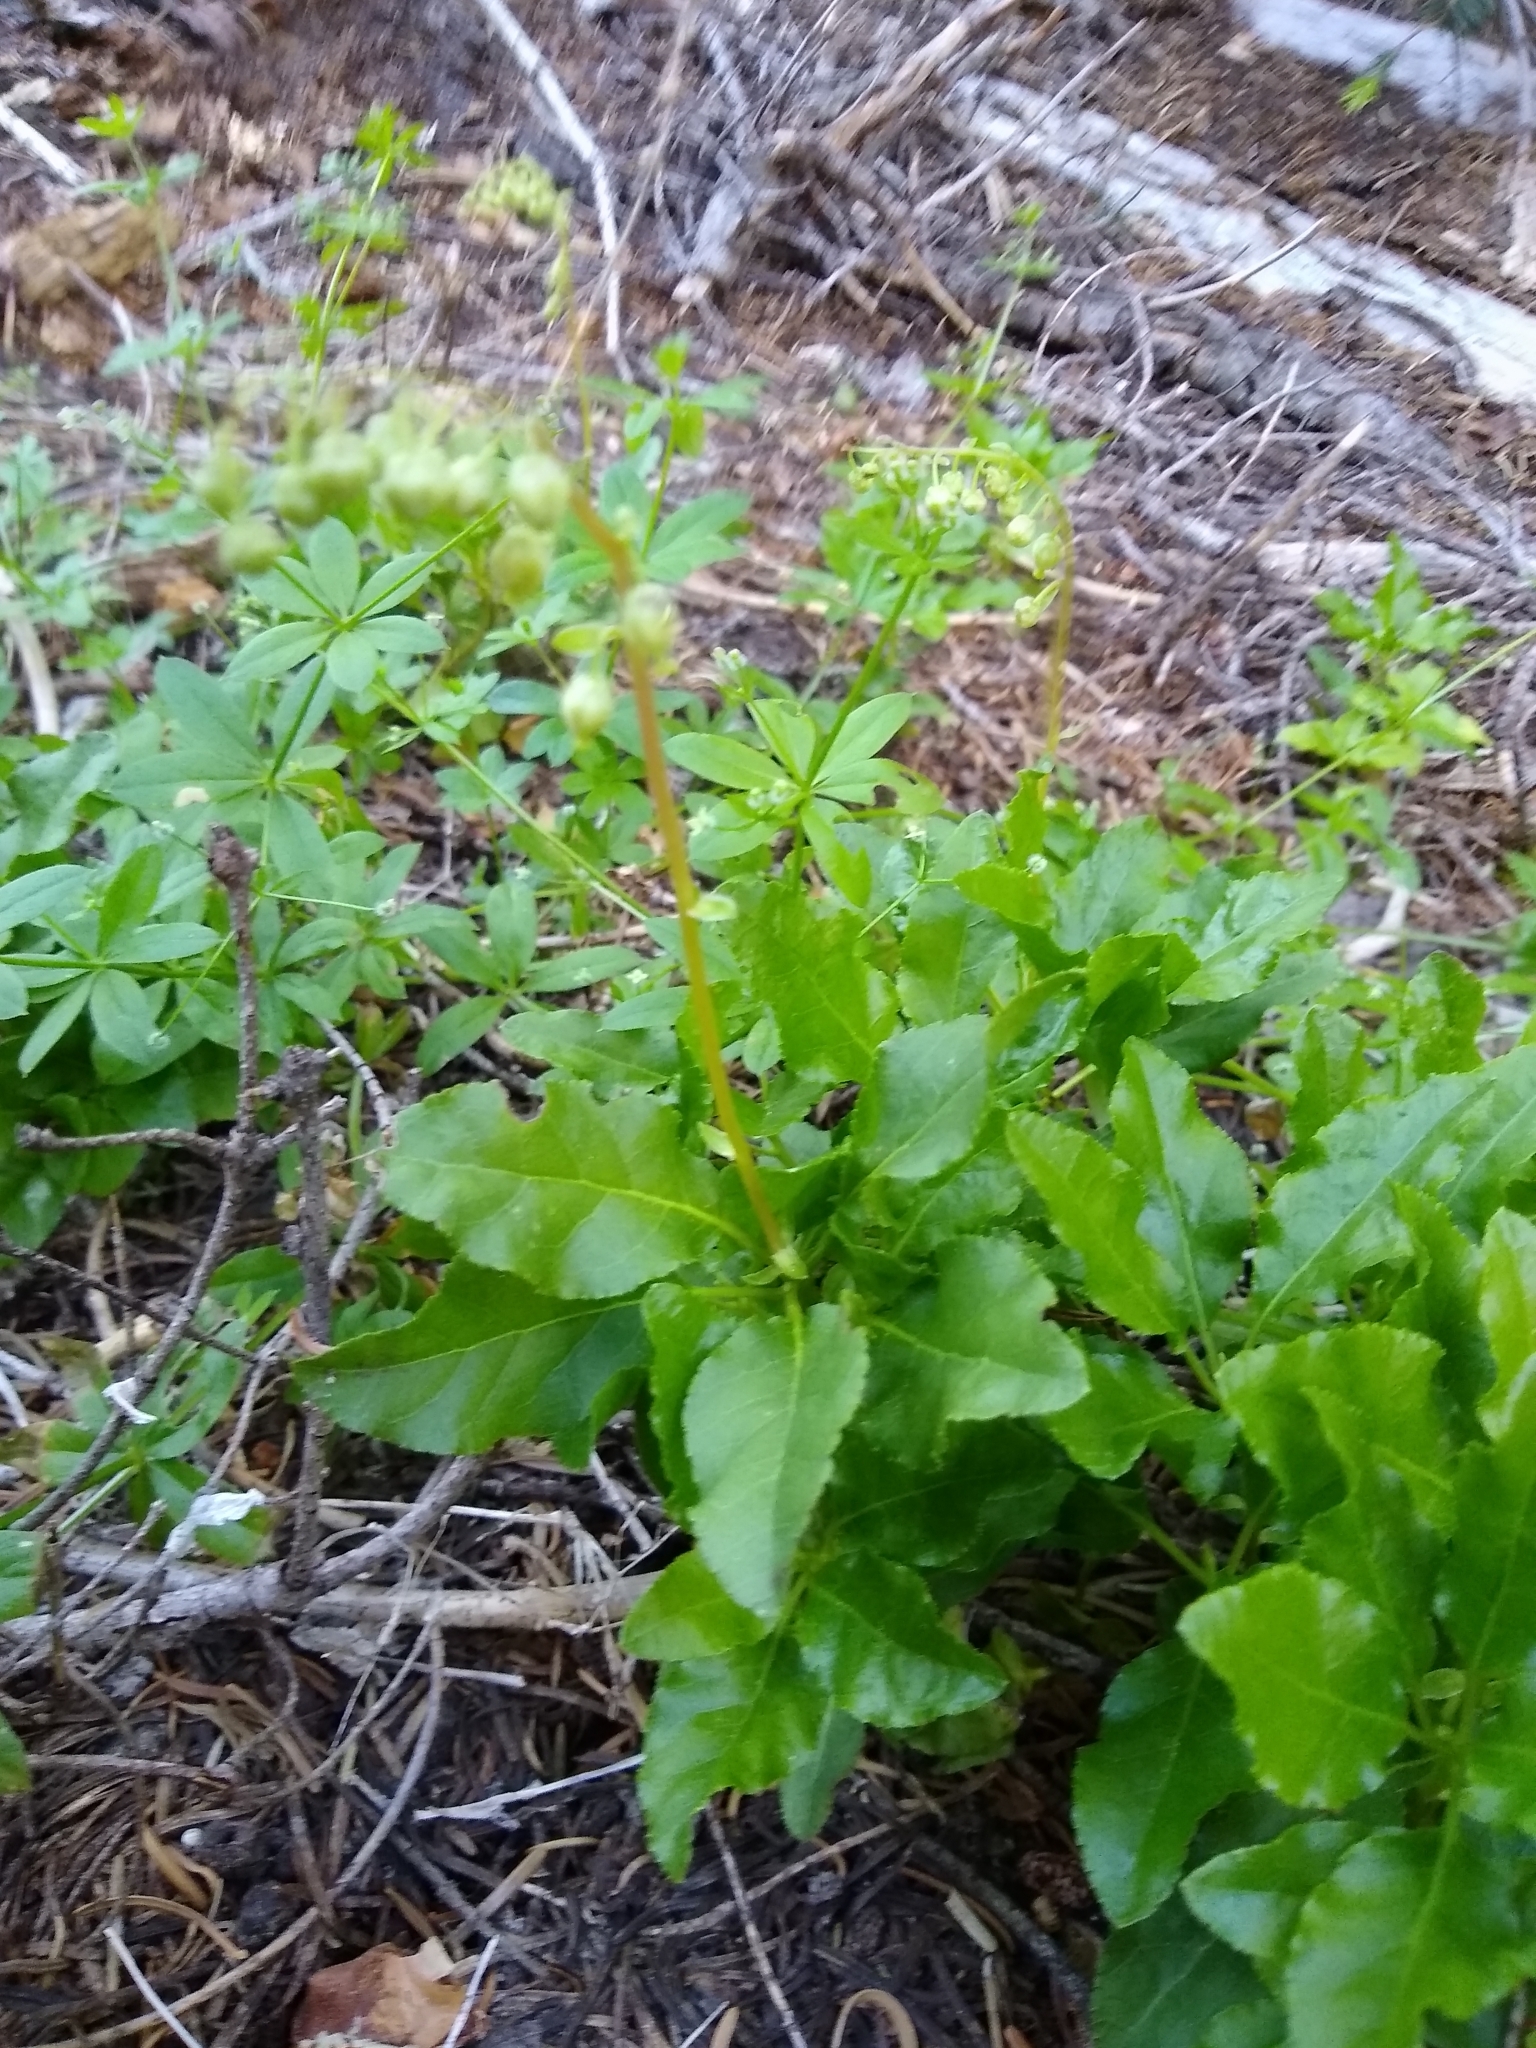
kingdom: Plantae
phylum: Tracheophyta
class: Magnoliopsida
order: Ericales
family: Ericaceae
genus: Orthilia
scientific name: Orthilia secunda
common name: One-sided orthilia
